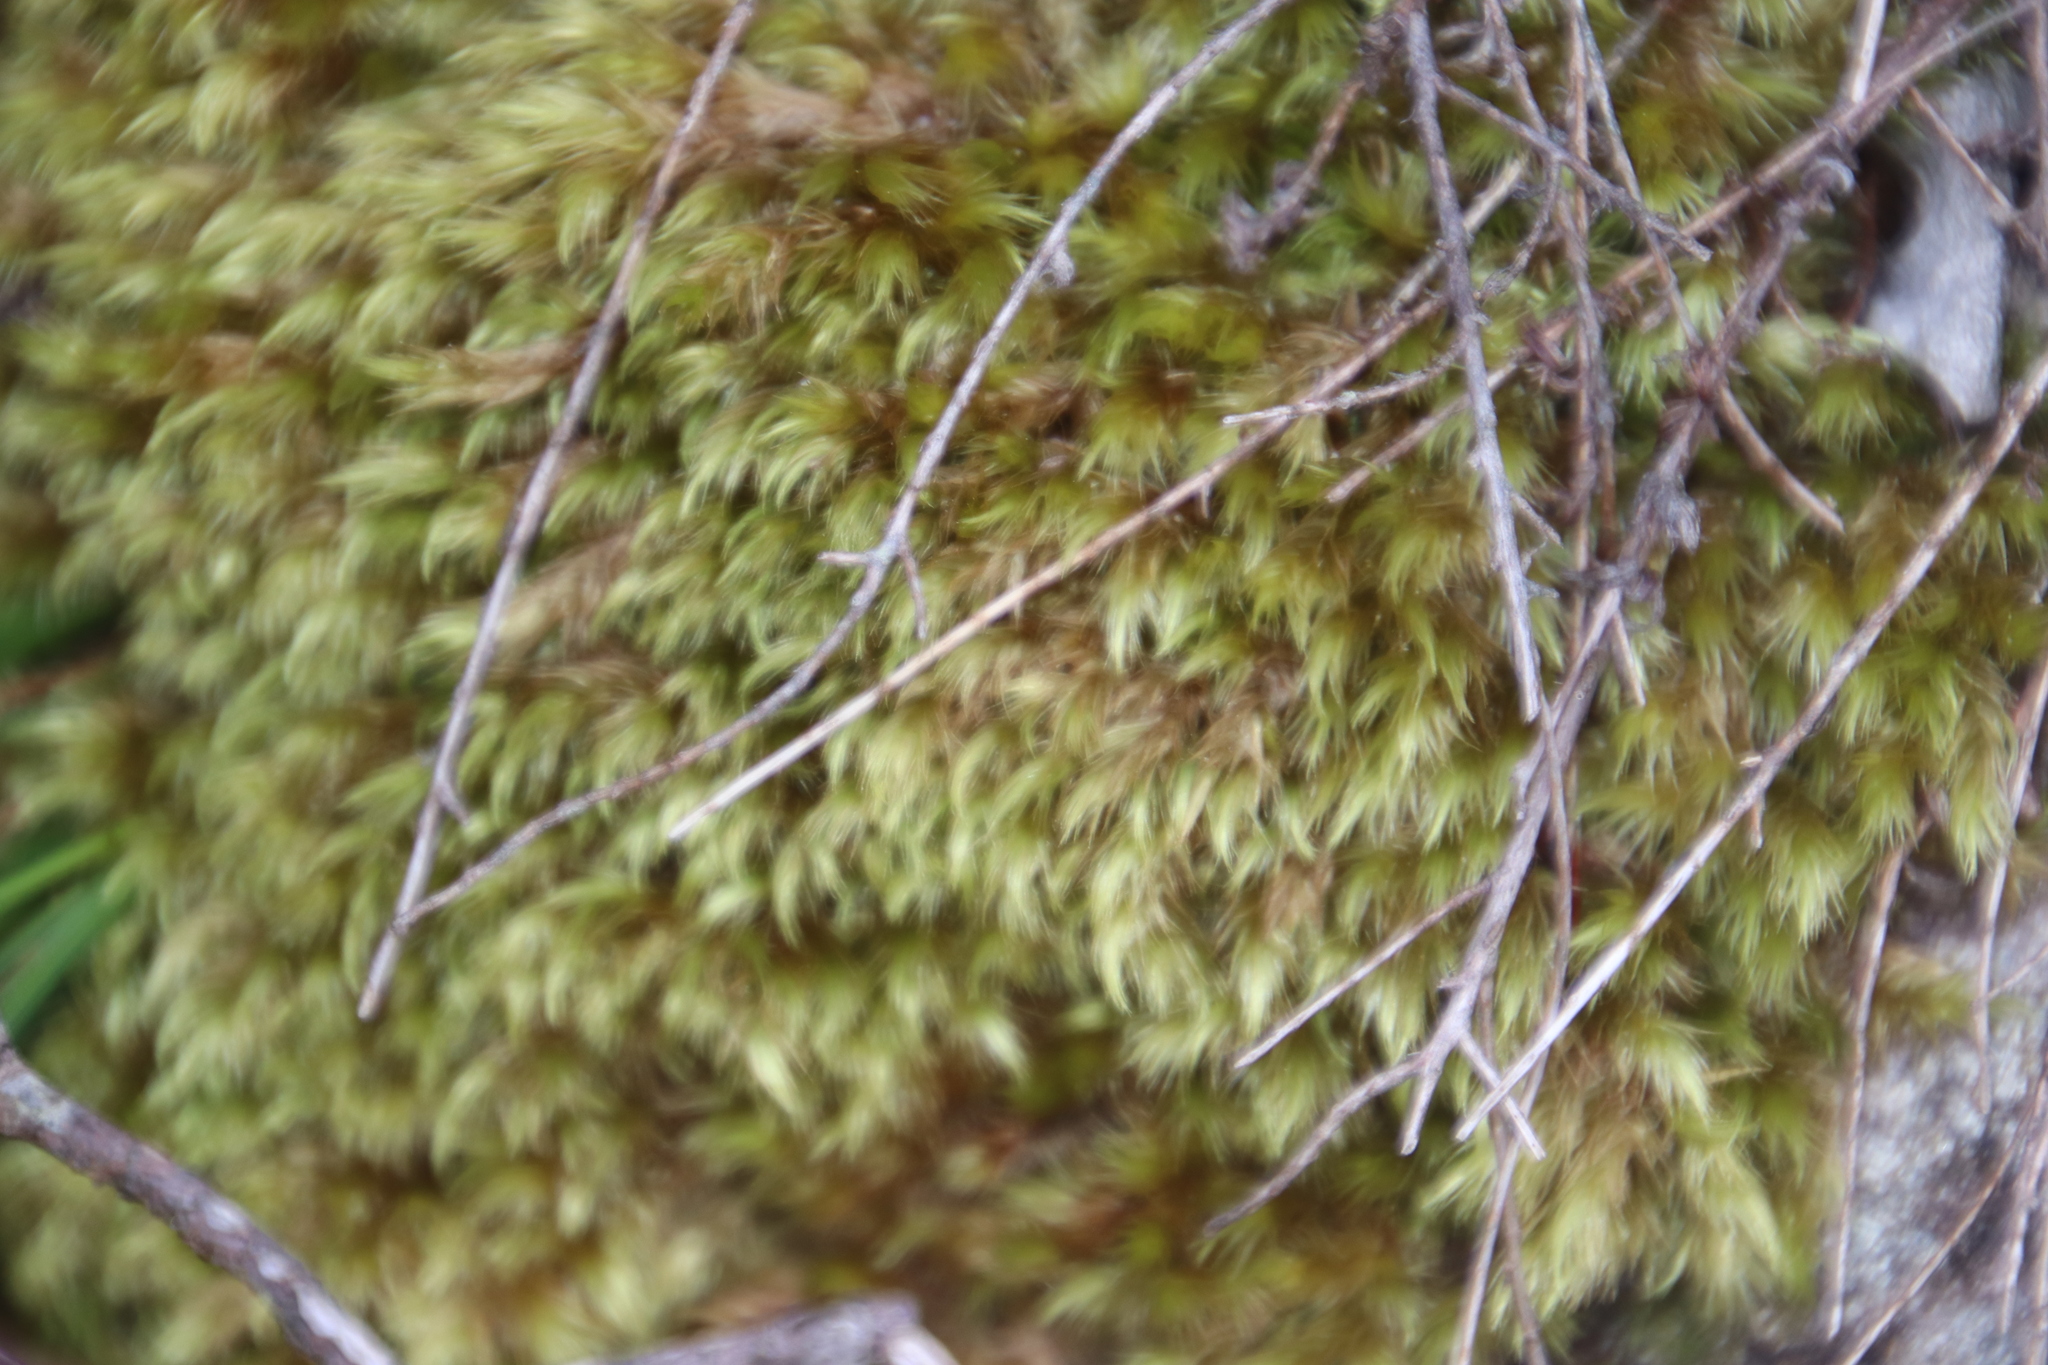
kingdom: Plantae
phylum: Bryophyta
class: Bryopsida
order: Dicranales
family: Dicranaceae
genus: Dicranoloma
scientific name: Dicranoloma billardieri
